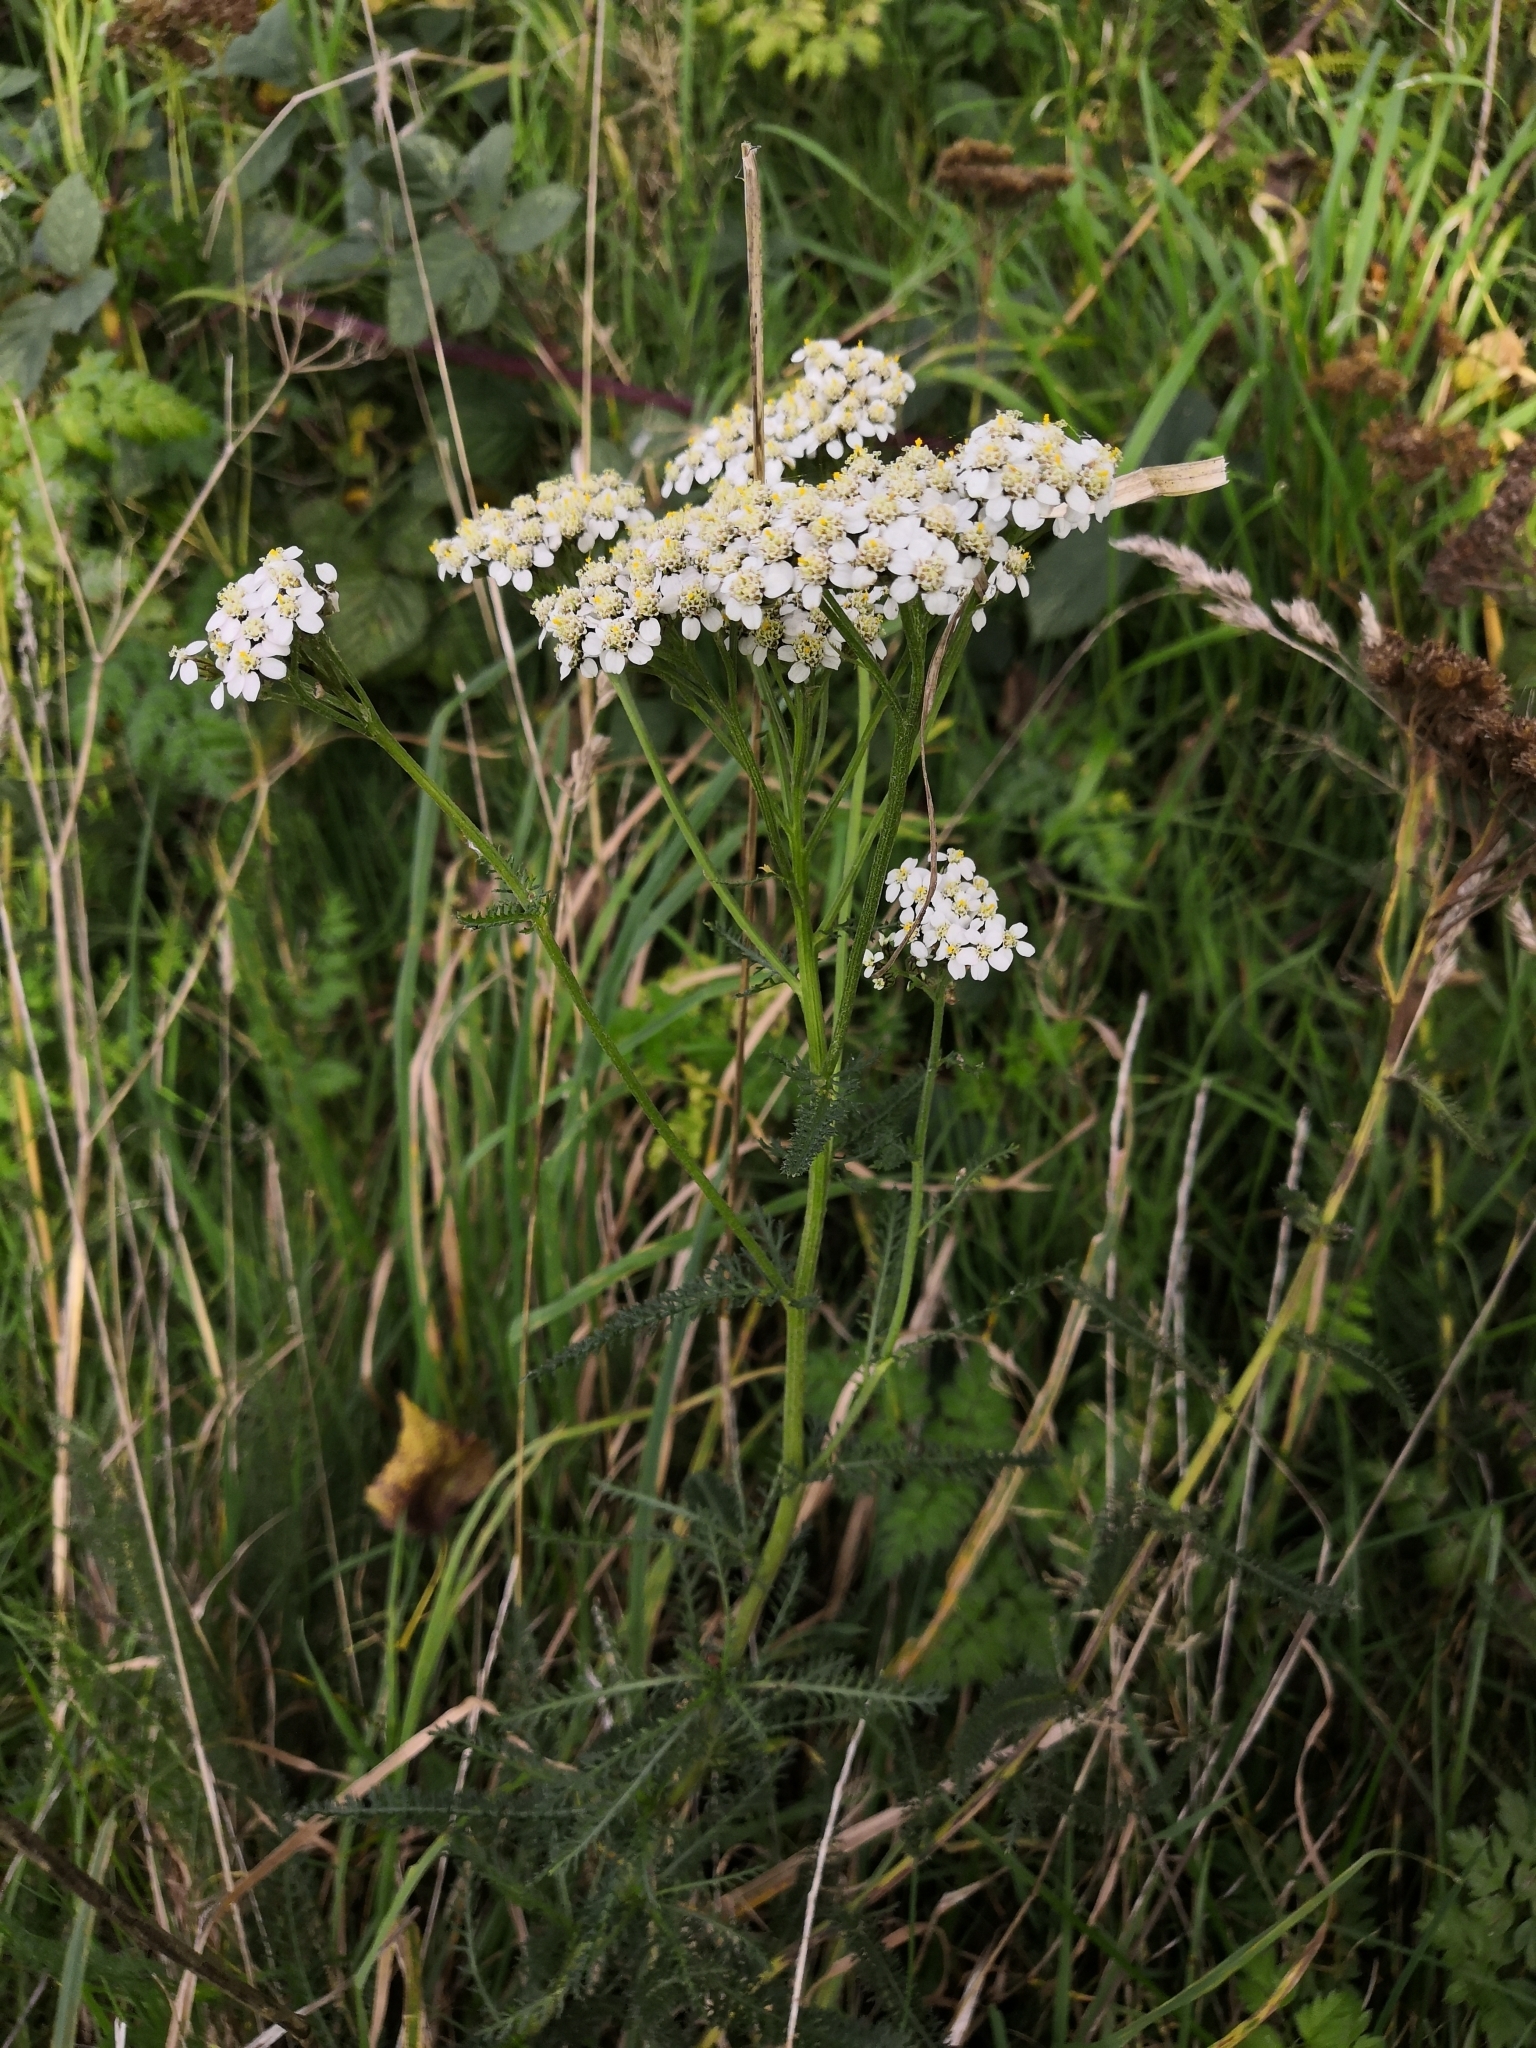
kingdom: Plantae
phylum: Tracheophyta
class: Magnoliopsida
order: Asterales
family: Asteraceae
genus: Achillea
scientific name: Achillea millefolium
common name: Yarrow
